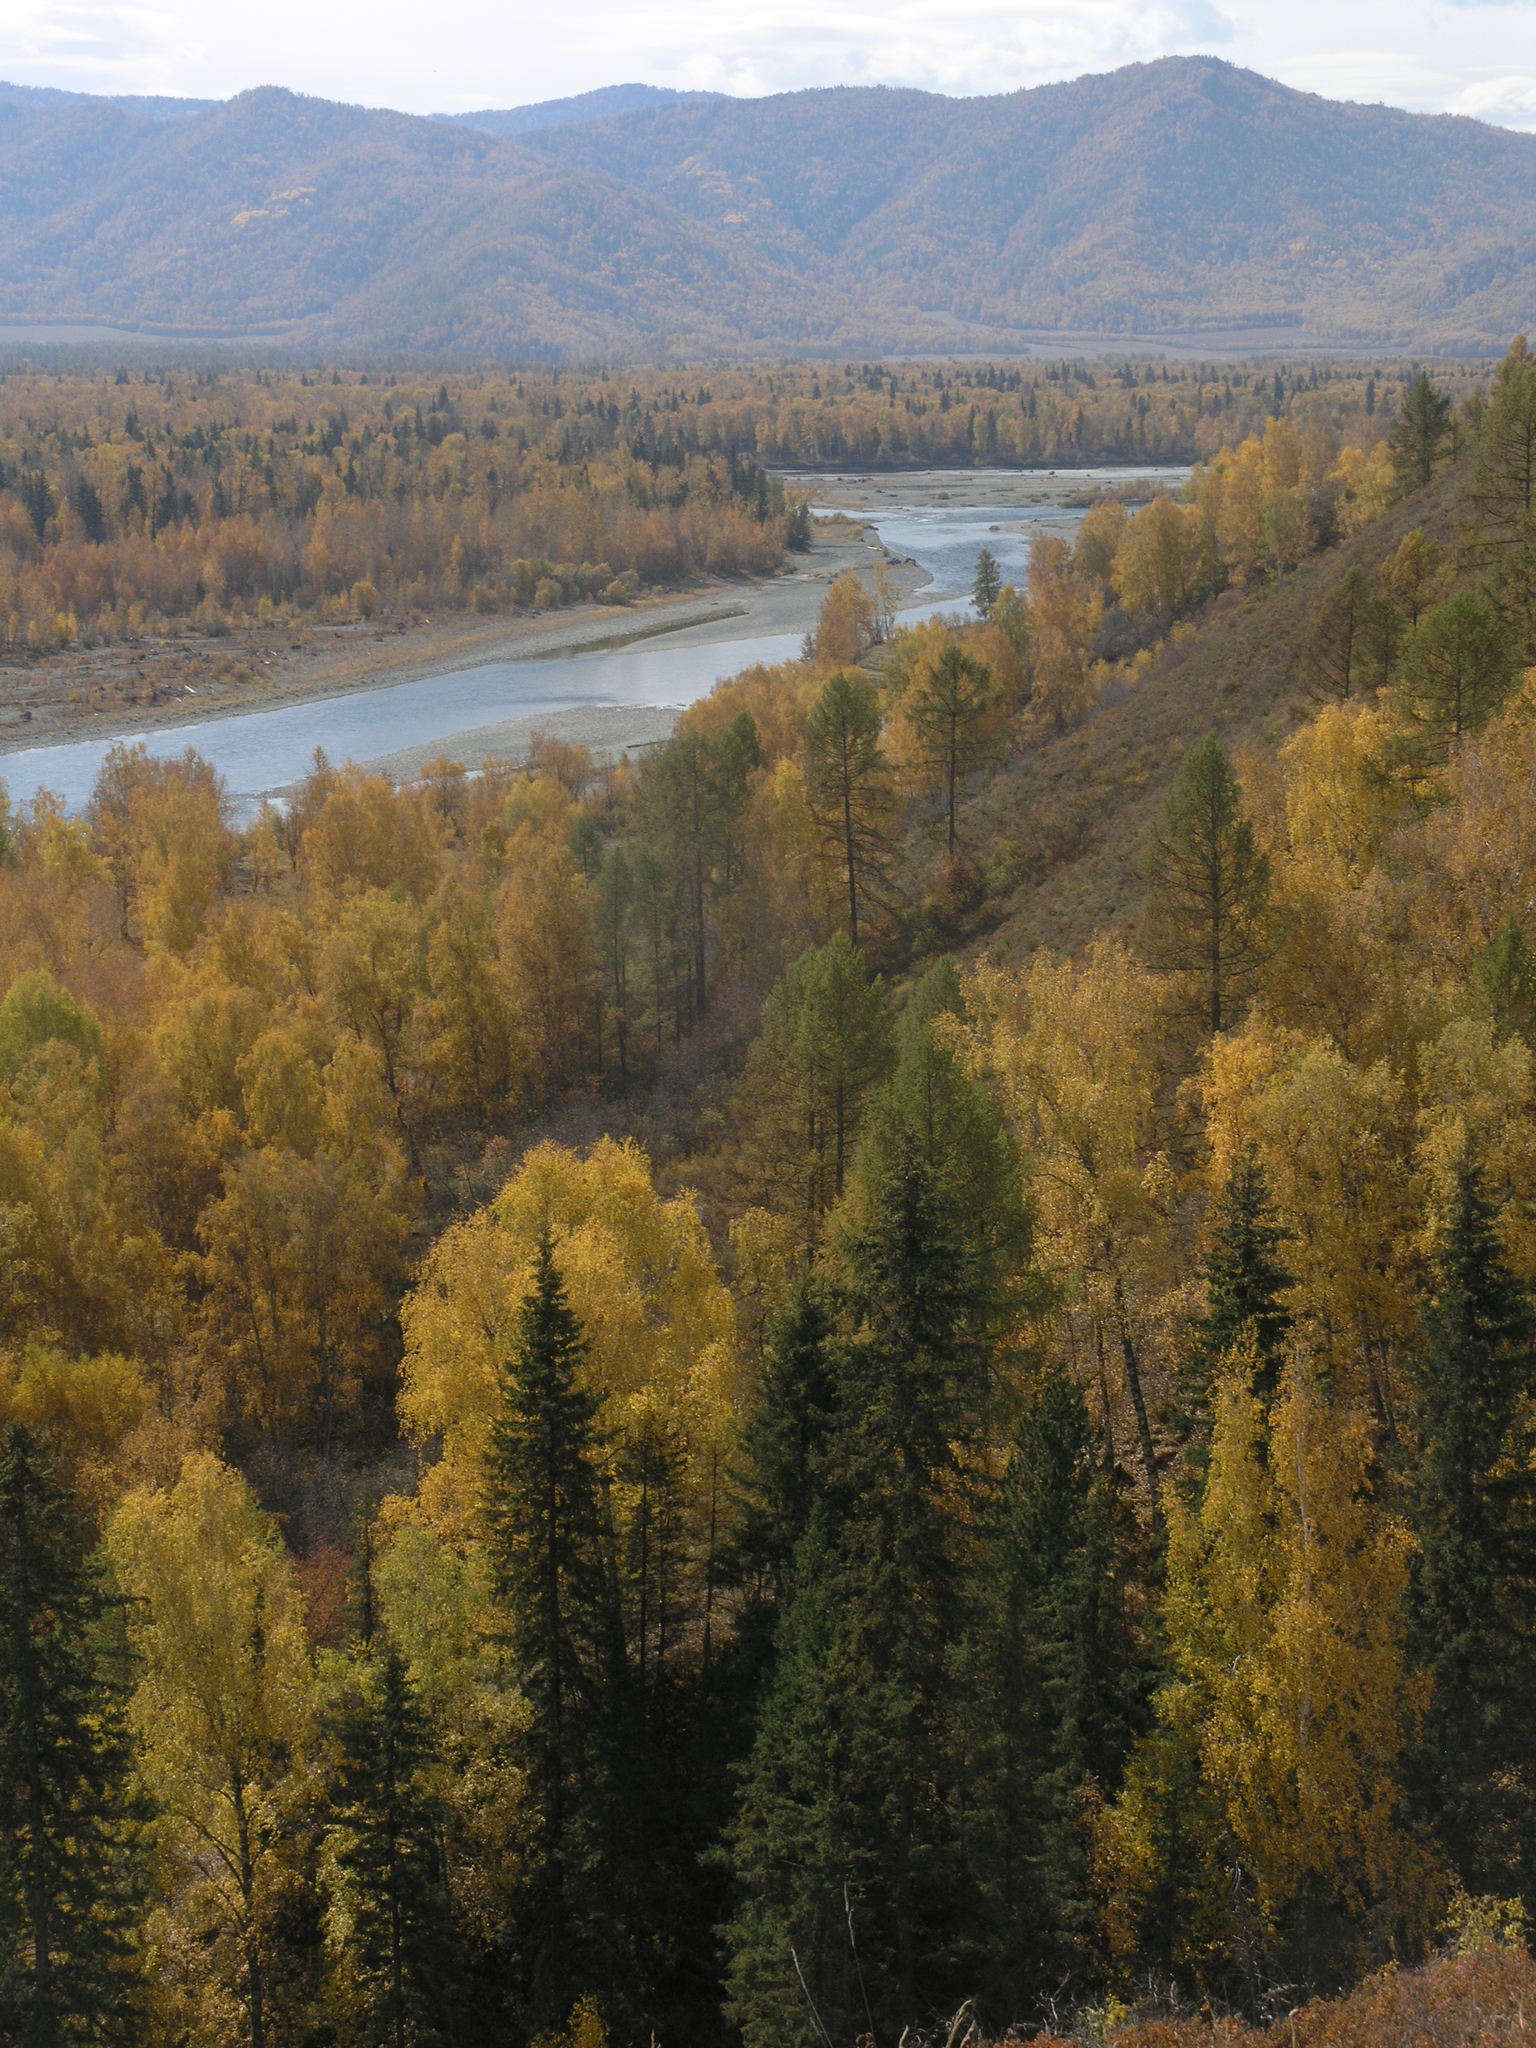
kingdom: Plantae
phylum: Tracheophyta
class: Pinopsida
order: Pinales
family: Pinaceae
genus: Picea
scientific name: Picea obovata
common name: Siberian spruce
